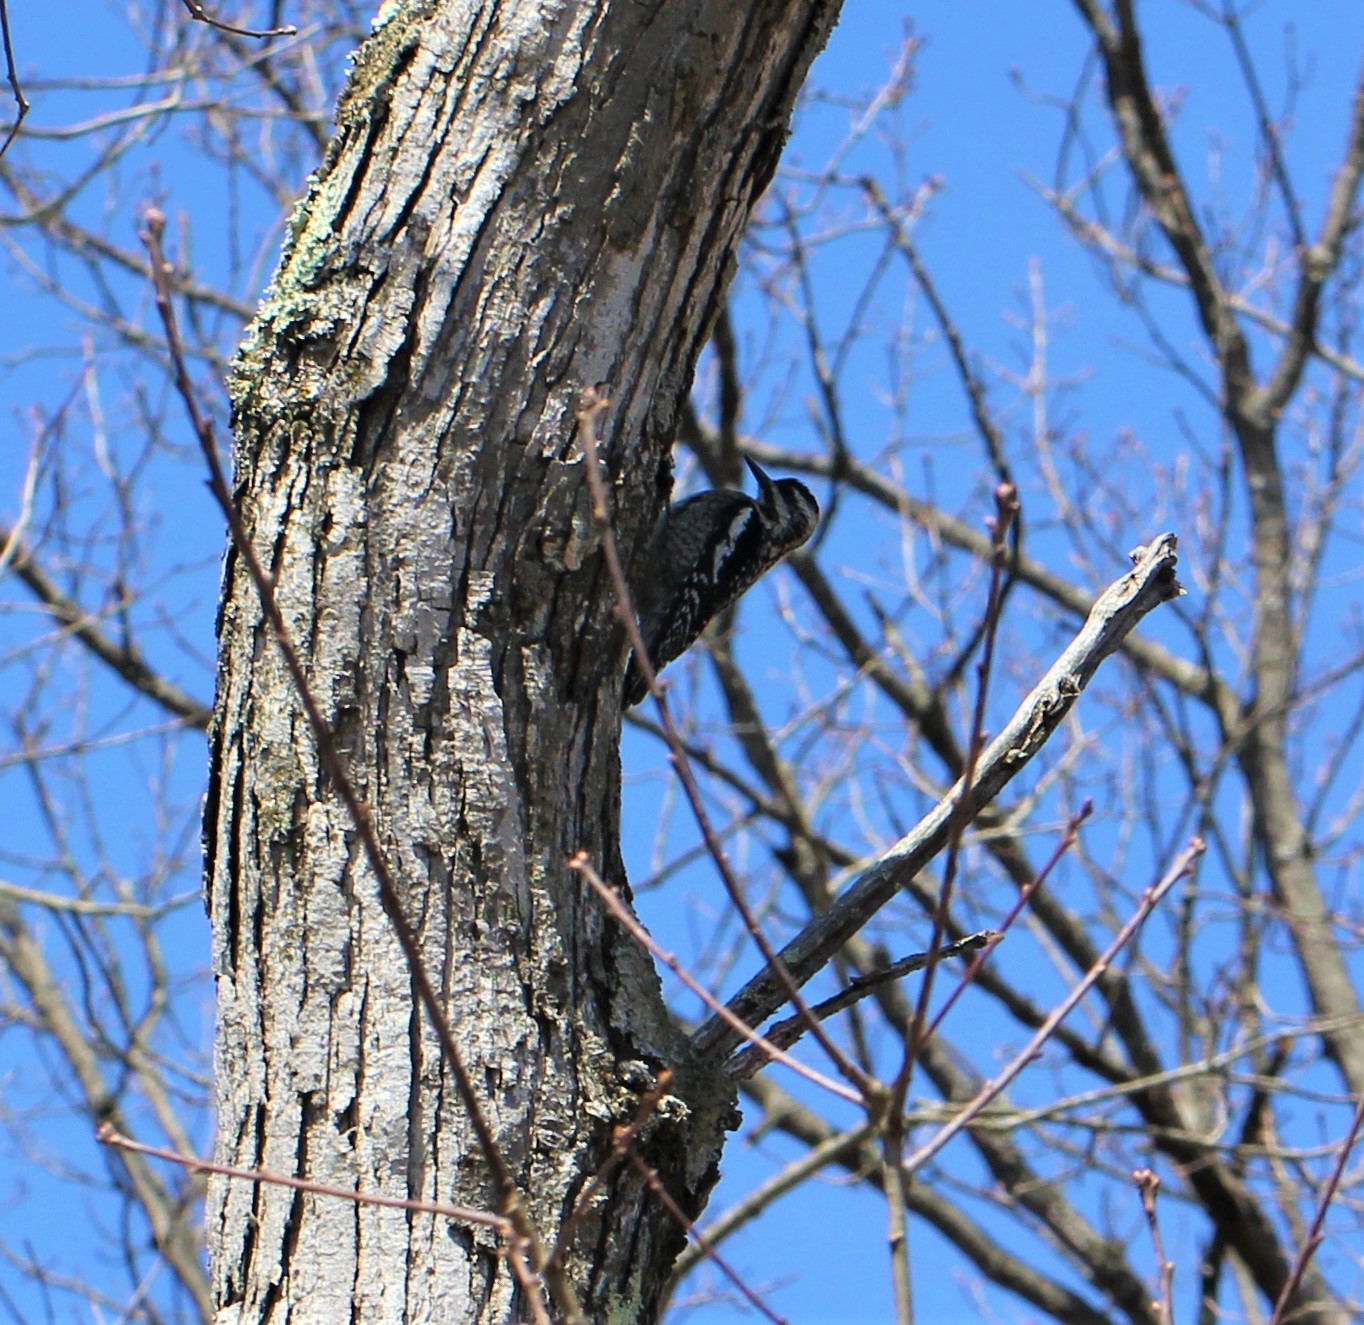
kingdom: Animalia
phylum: Chordata
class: Aves
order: Piciformes
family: Picidae
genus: Sphyrapicus
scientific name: Sphyrapicus varius
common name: Yellow-bellied sapsucker
